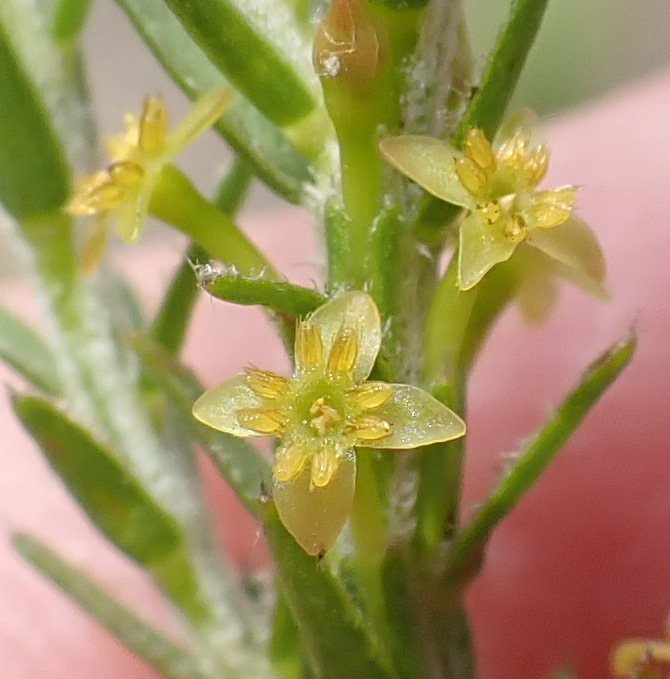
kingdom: Plantae
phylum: Tracheophyta
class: Magnoliopsida
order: Malvales
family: Thymelaeaceae
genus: Struthiola
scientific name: Struthiola parviflora
